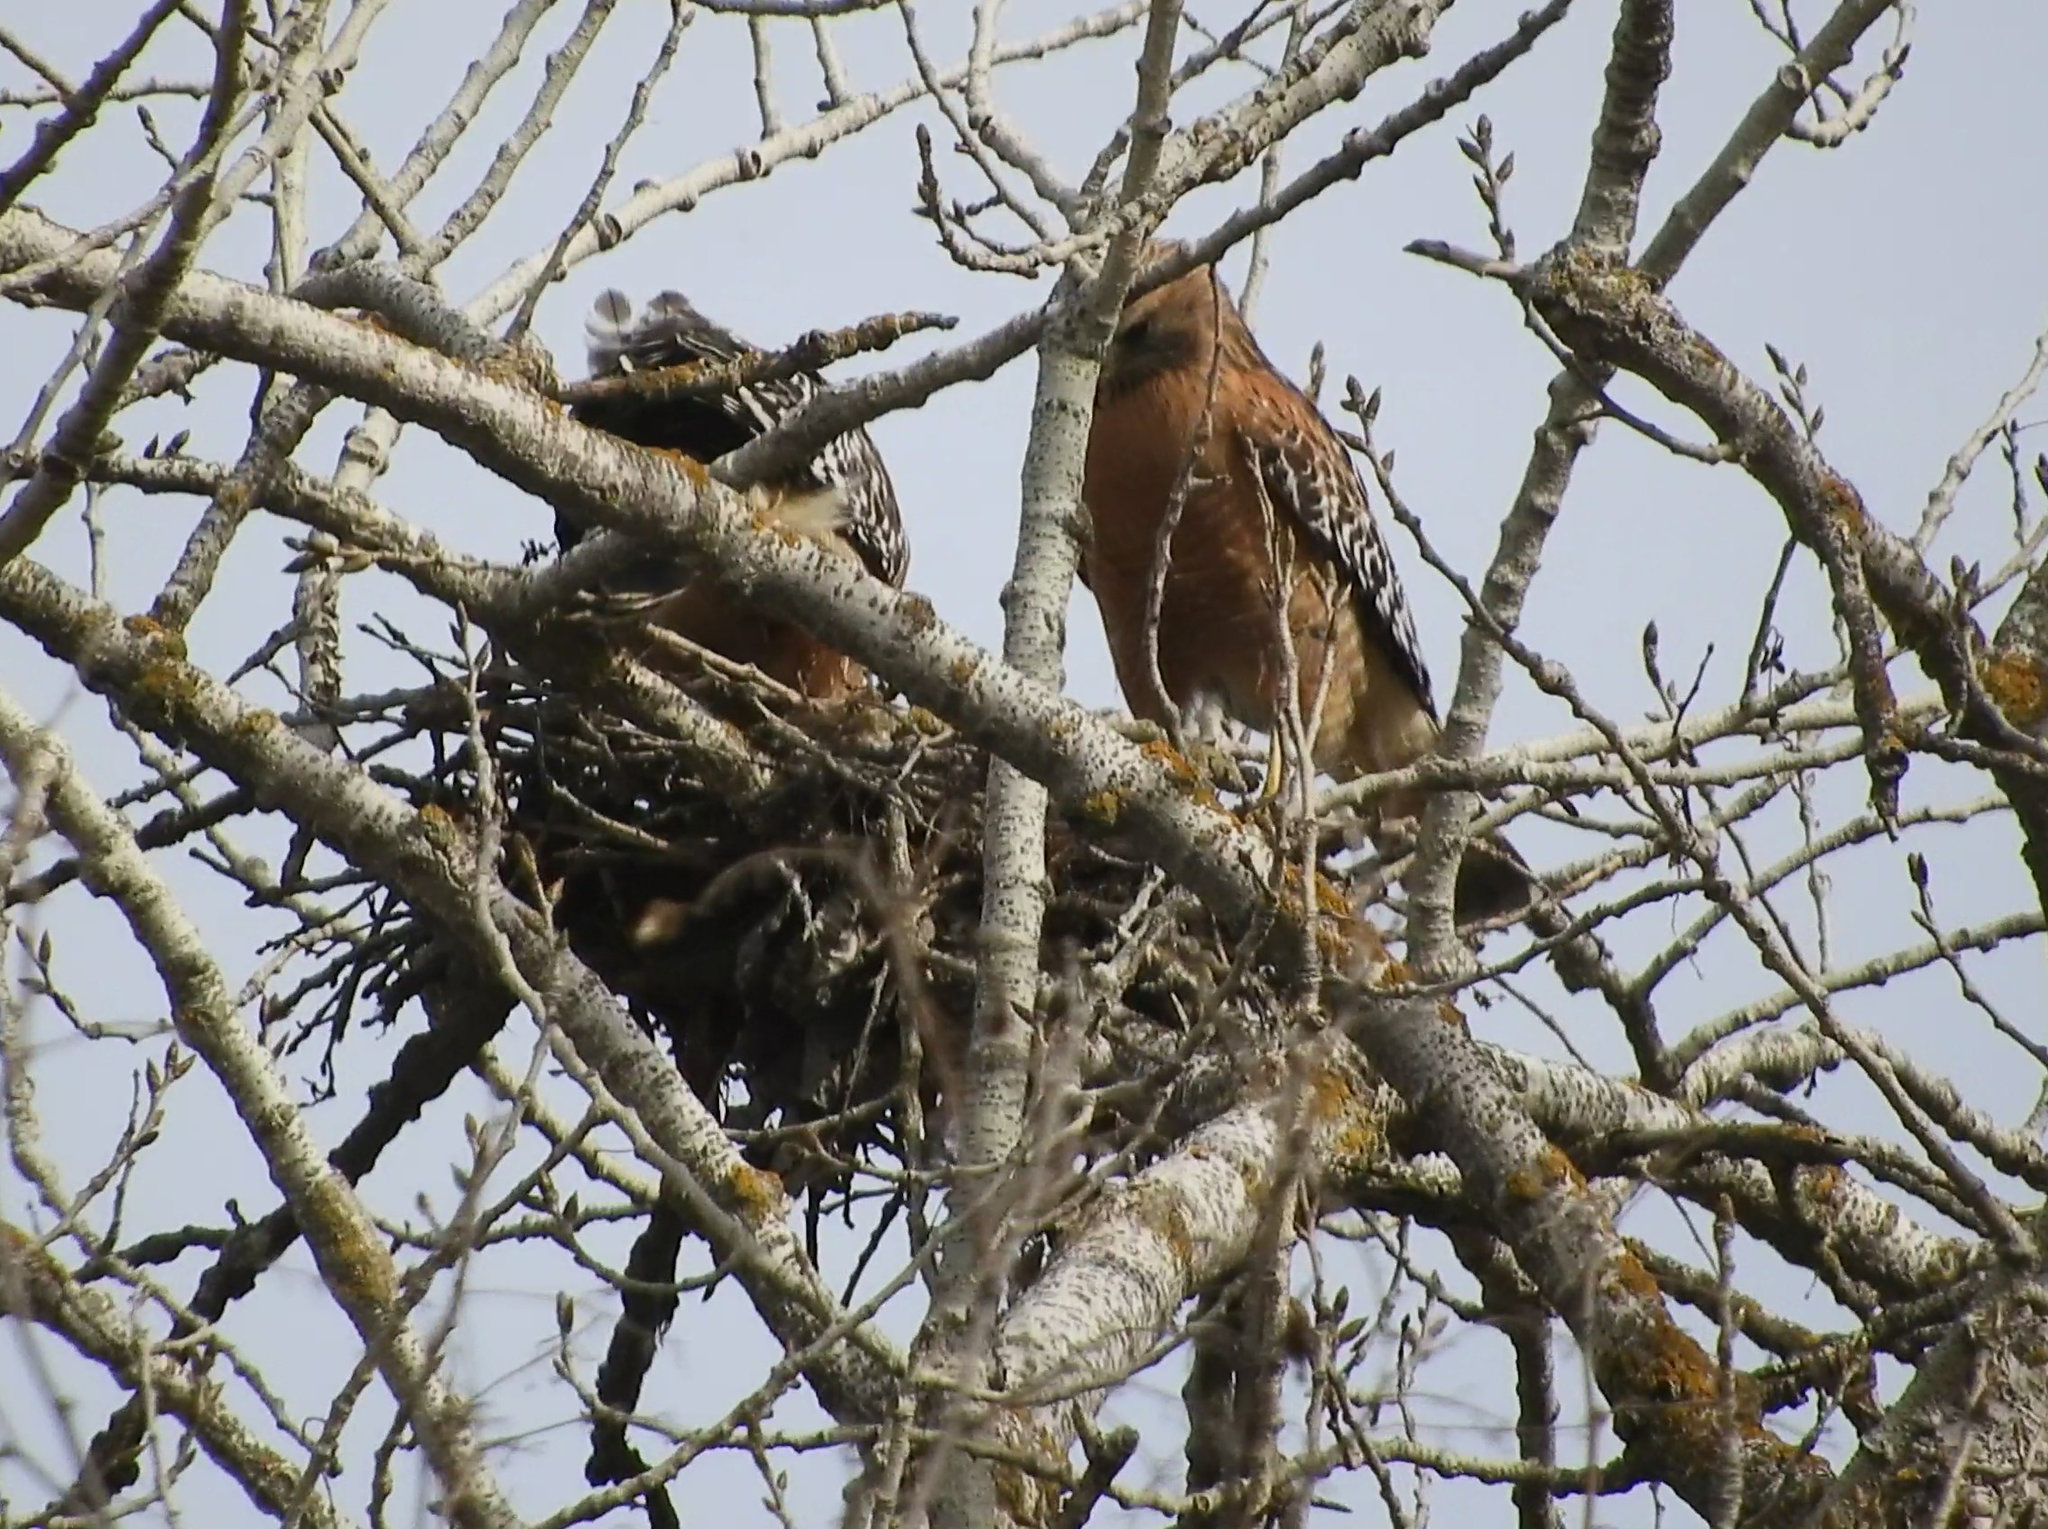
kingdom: Animalia
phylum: Chordata
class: Aves
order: Accipitriformes
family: Accipitridae
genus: Buteo
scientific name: Buteo lineatus
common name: Red-shouldered hawk
